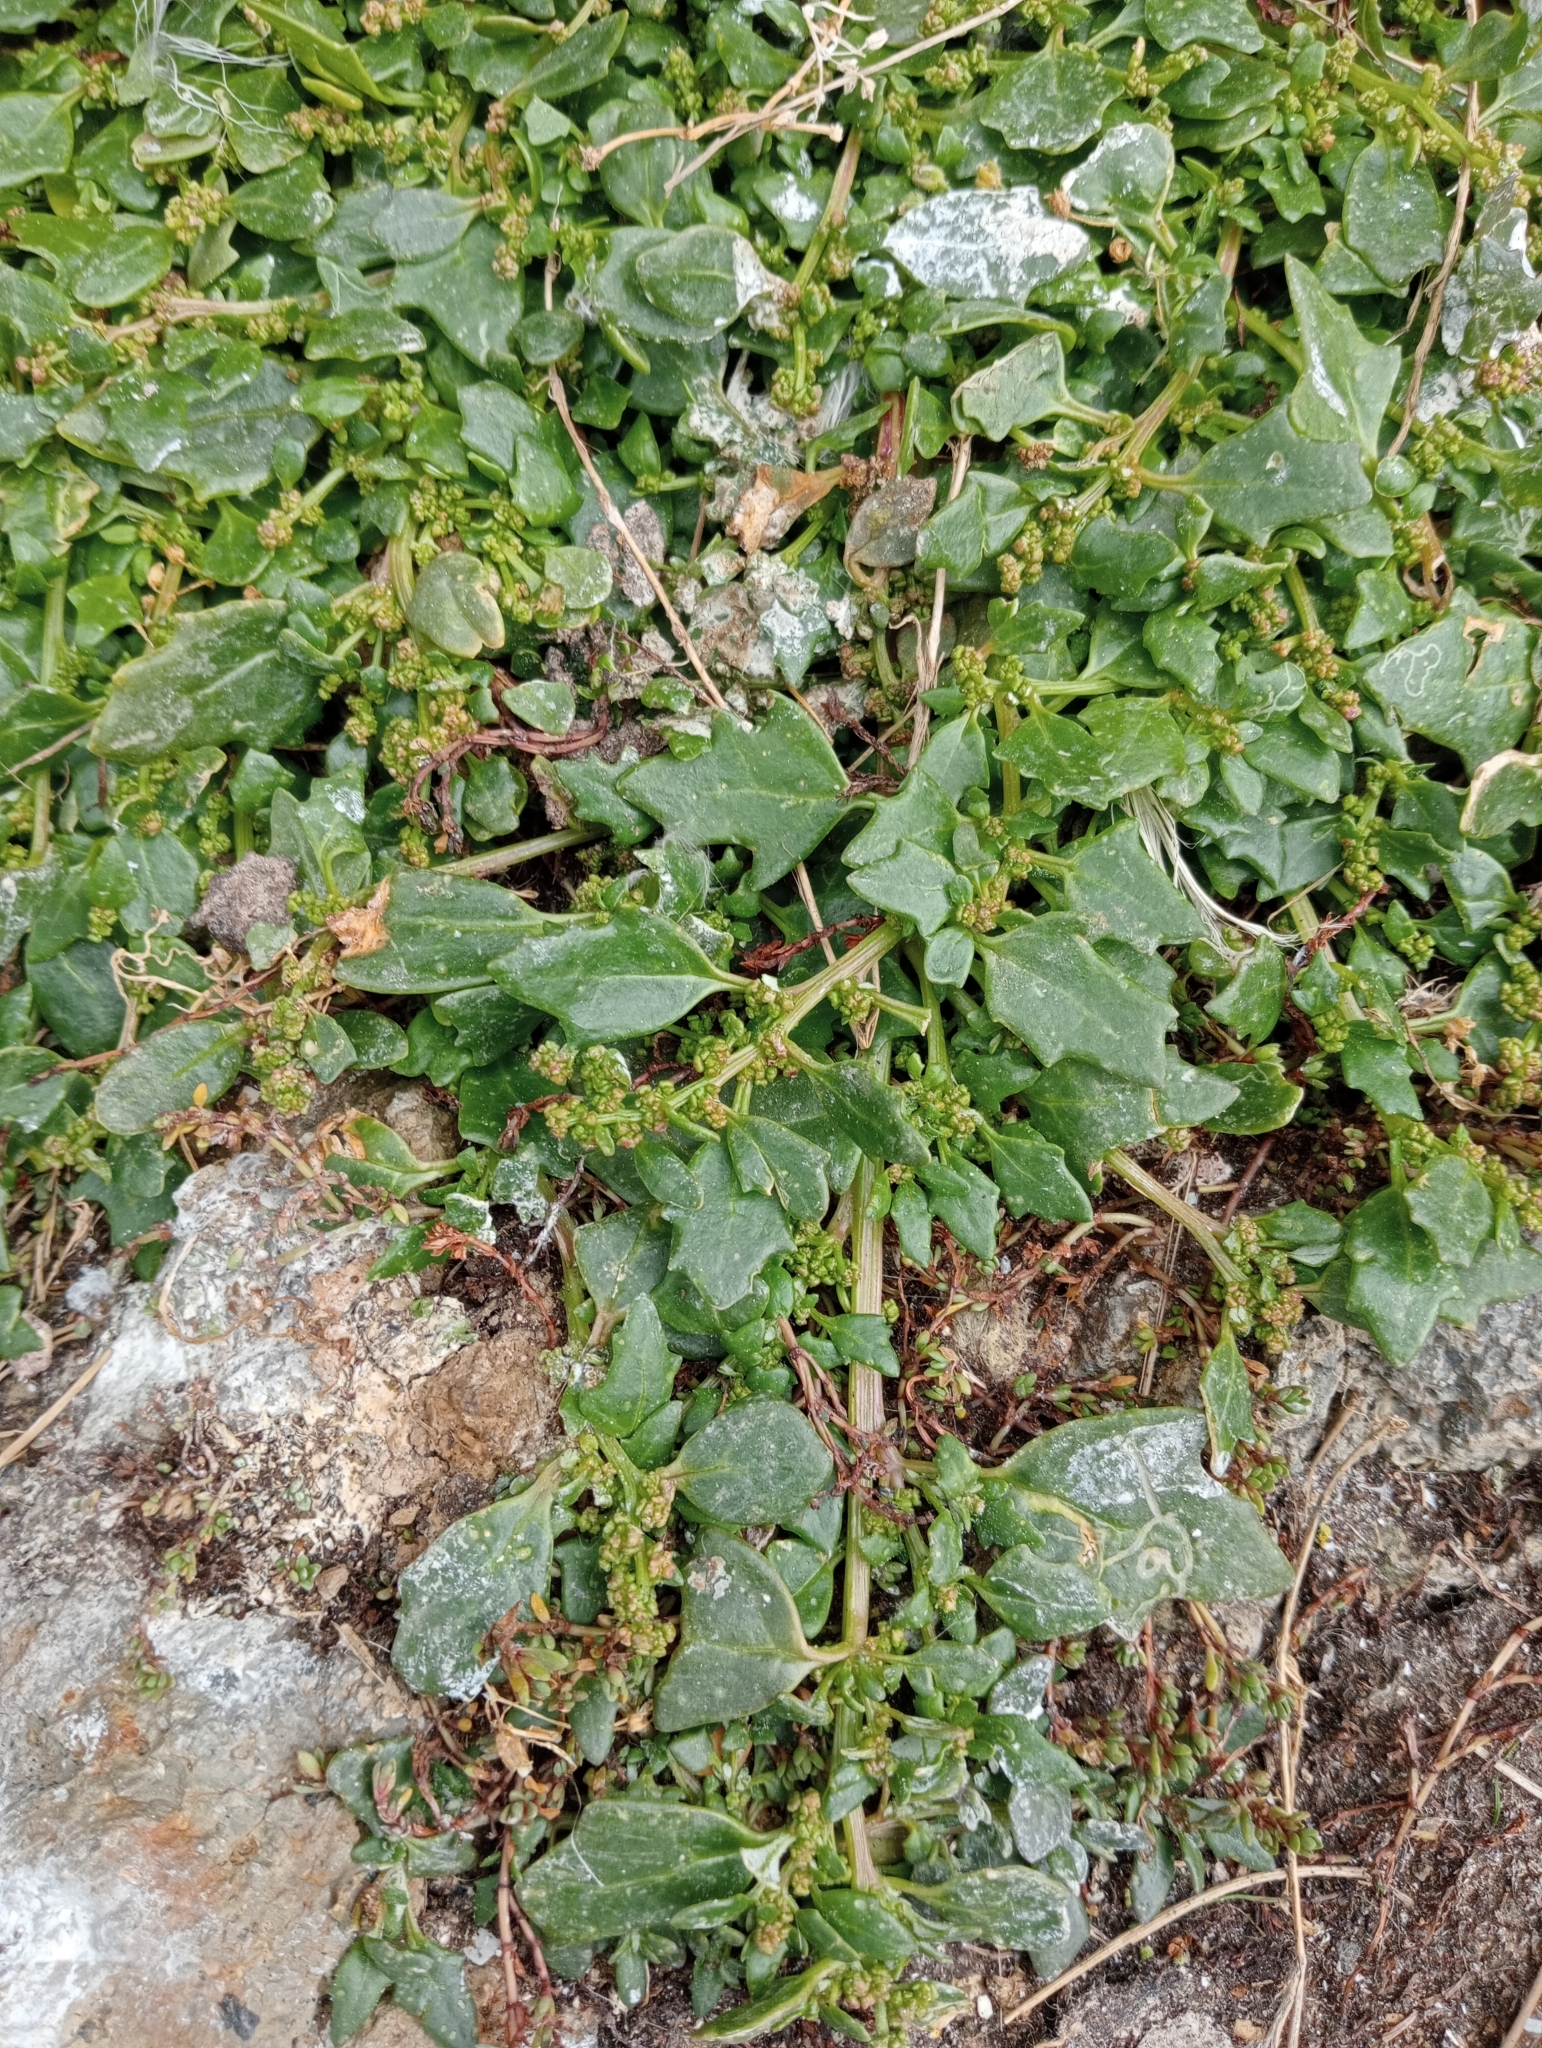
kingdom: Plantae
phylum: Tracheophyta
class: Magnoliopsida
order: Caryophyllales
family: Amaranthaceae
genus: Oxybasis
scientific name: Oxybasis ambigua
